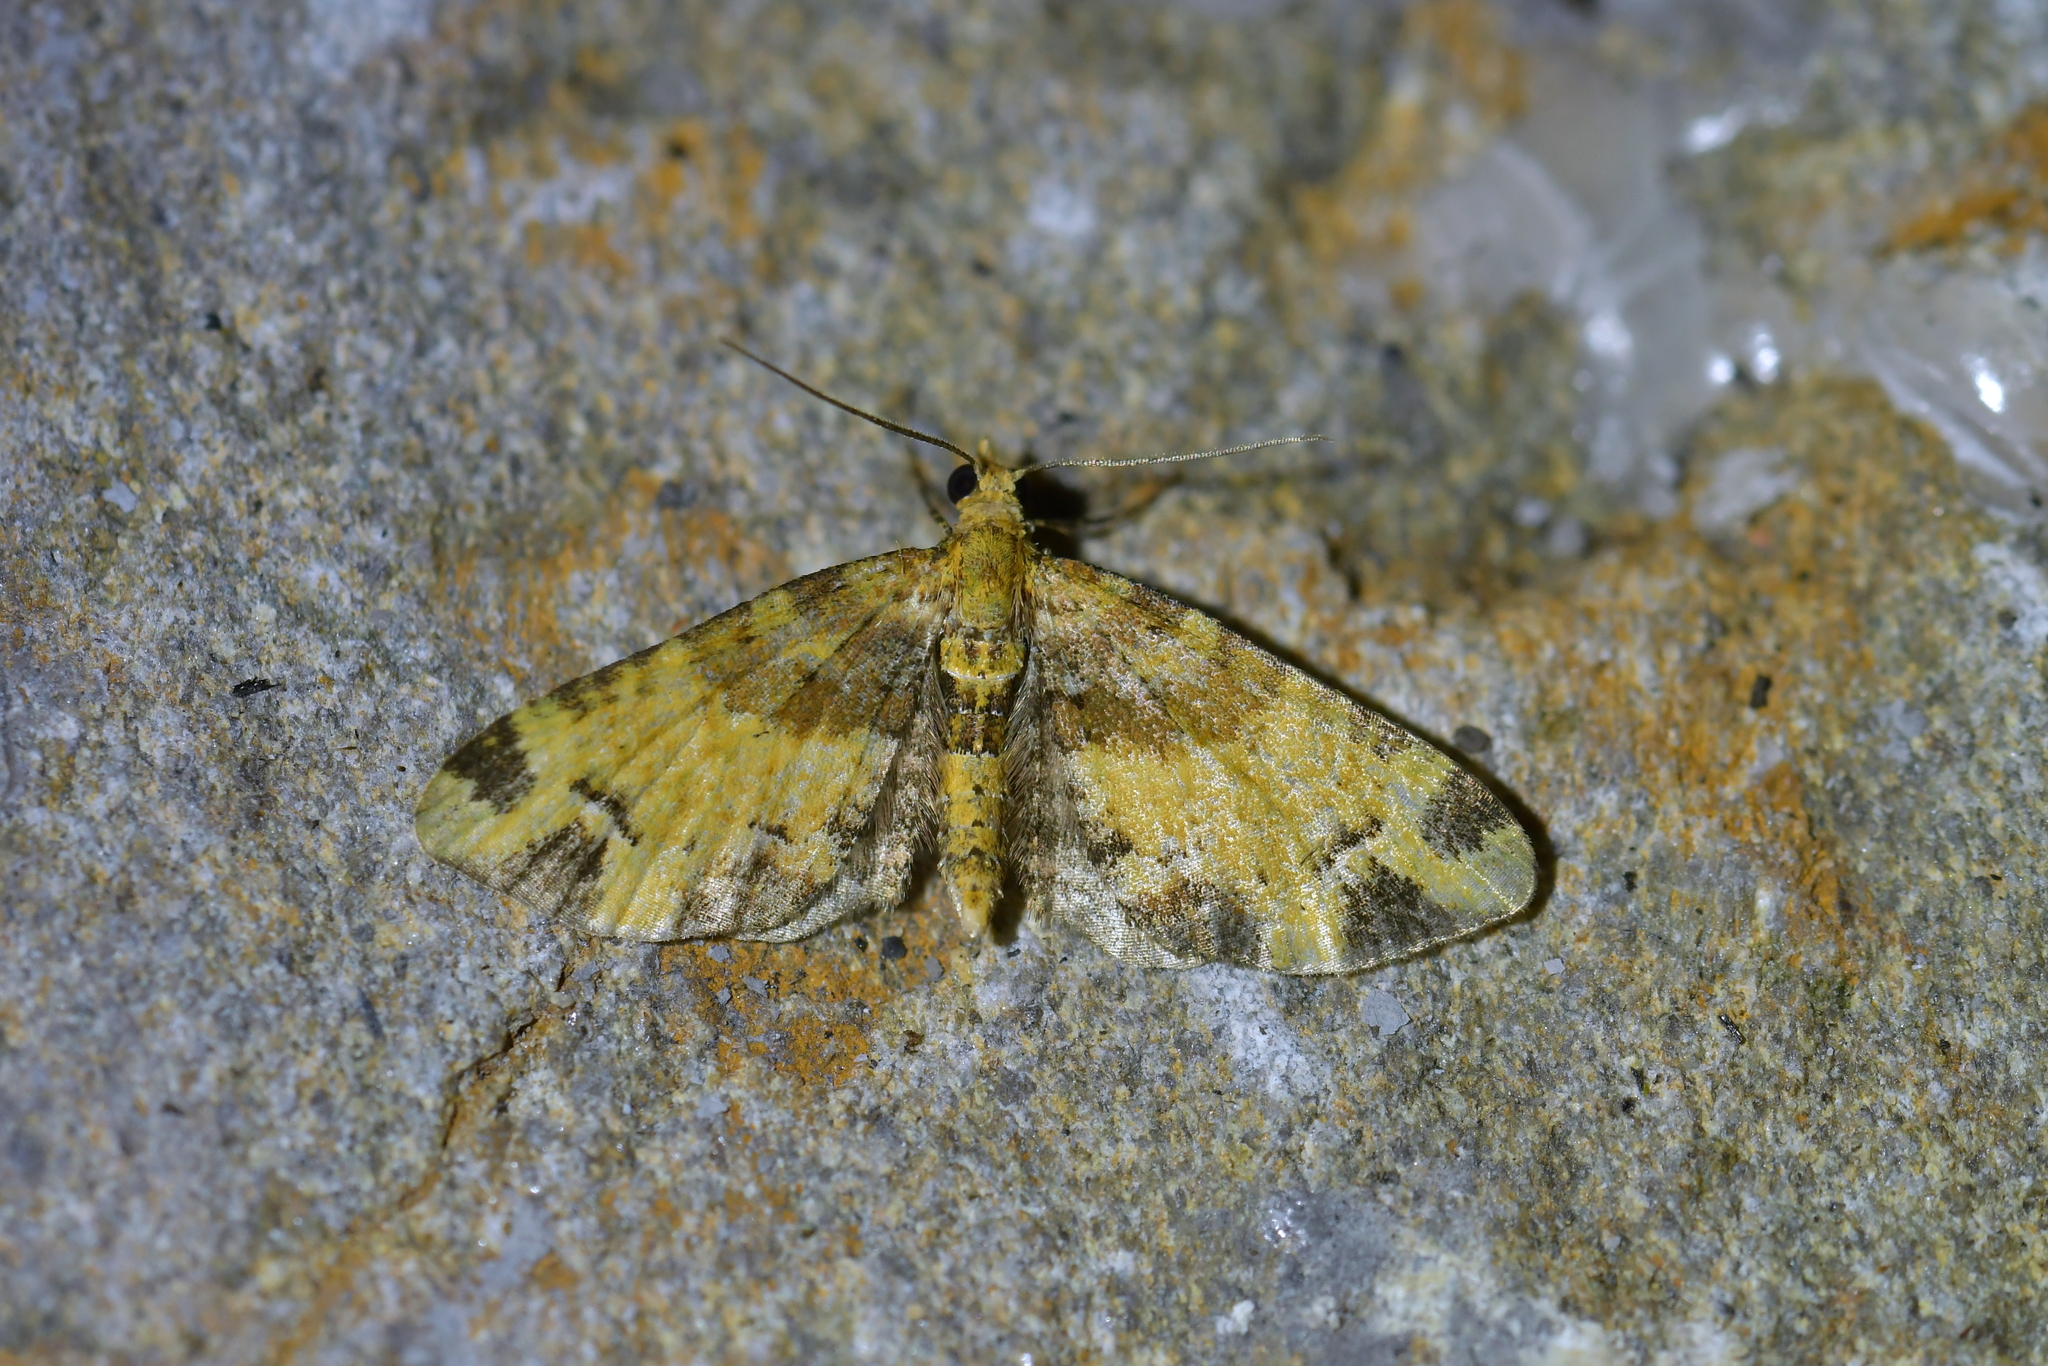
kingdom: Animalia
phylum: Arthropoda
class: Insecta
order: Lepidoptera
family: Geometridae
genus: Pasiphila
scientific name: Pasiphila malachita
